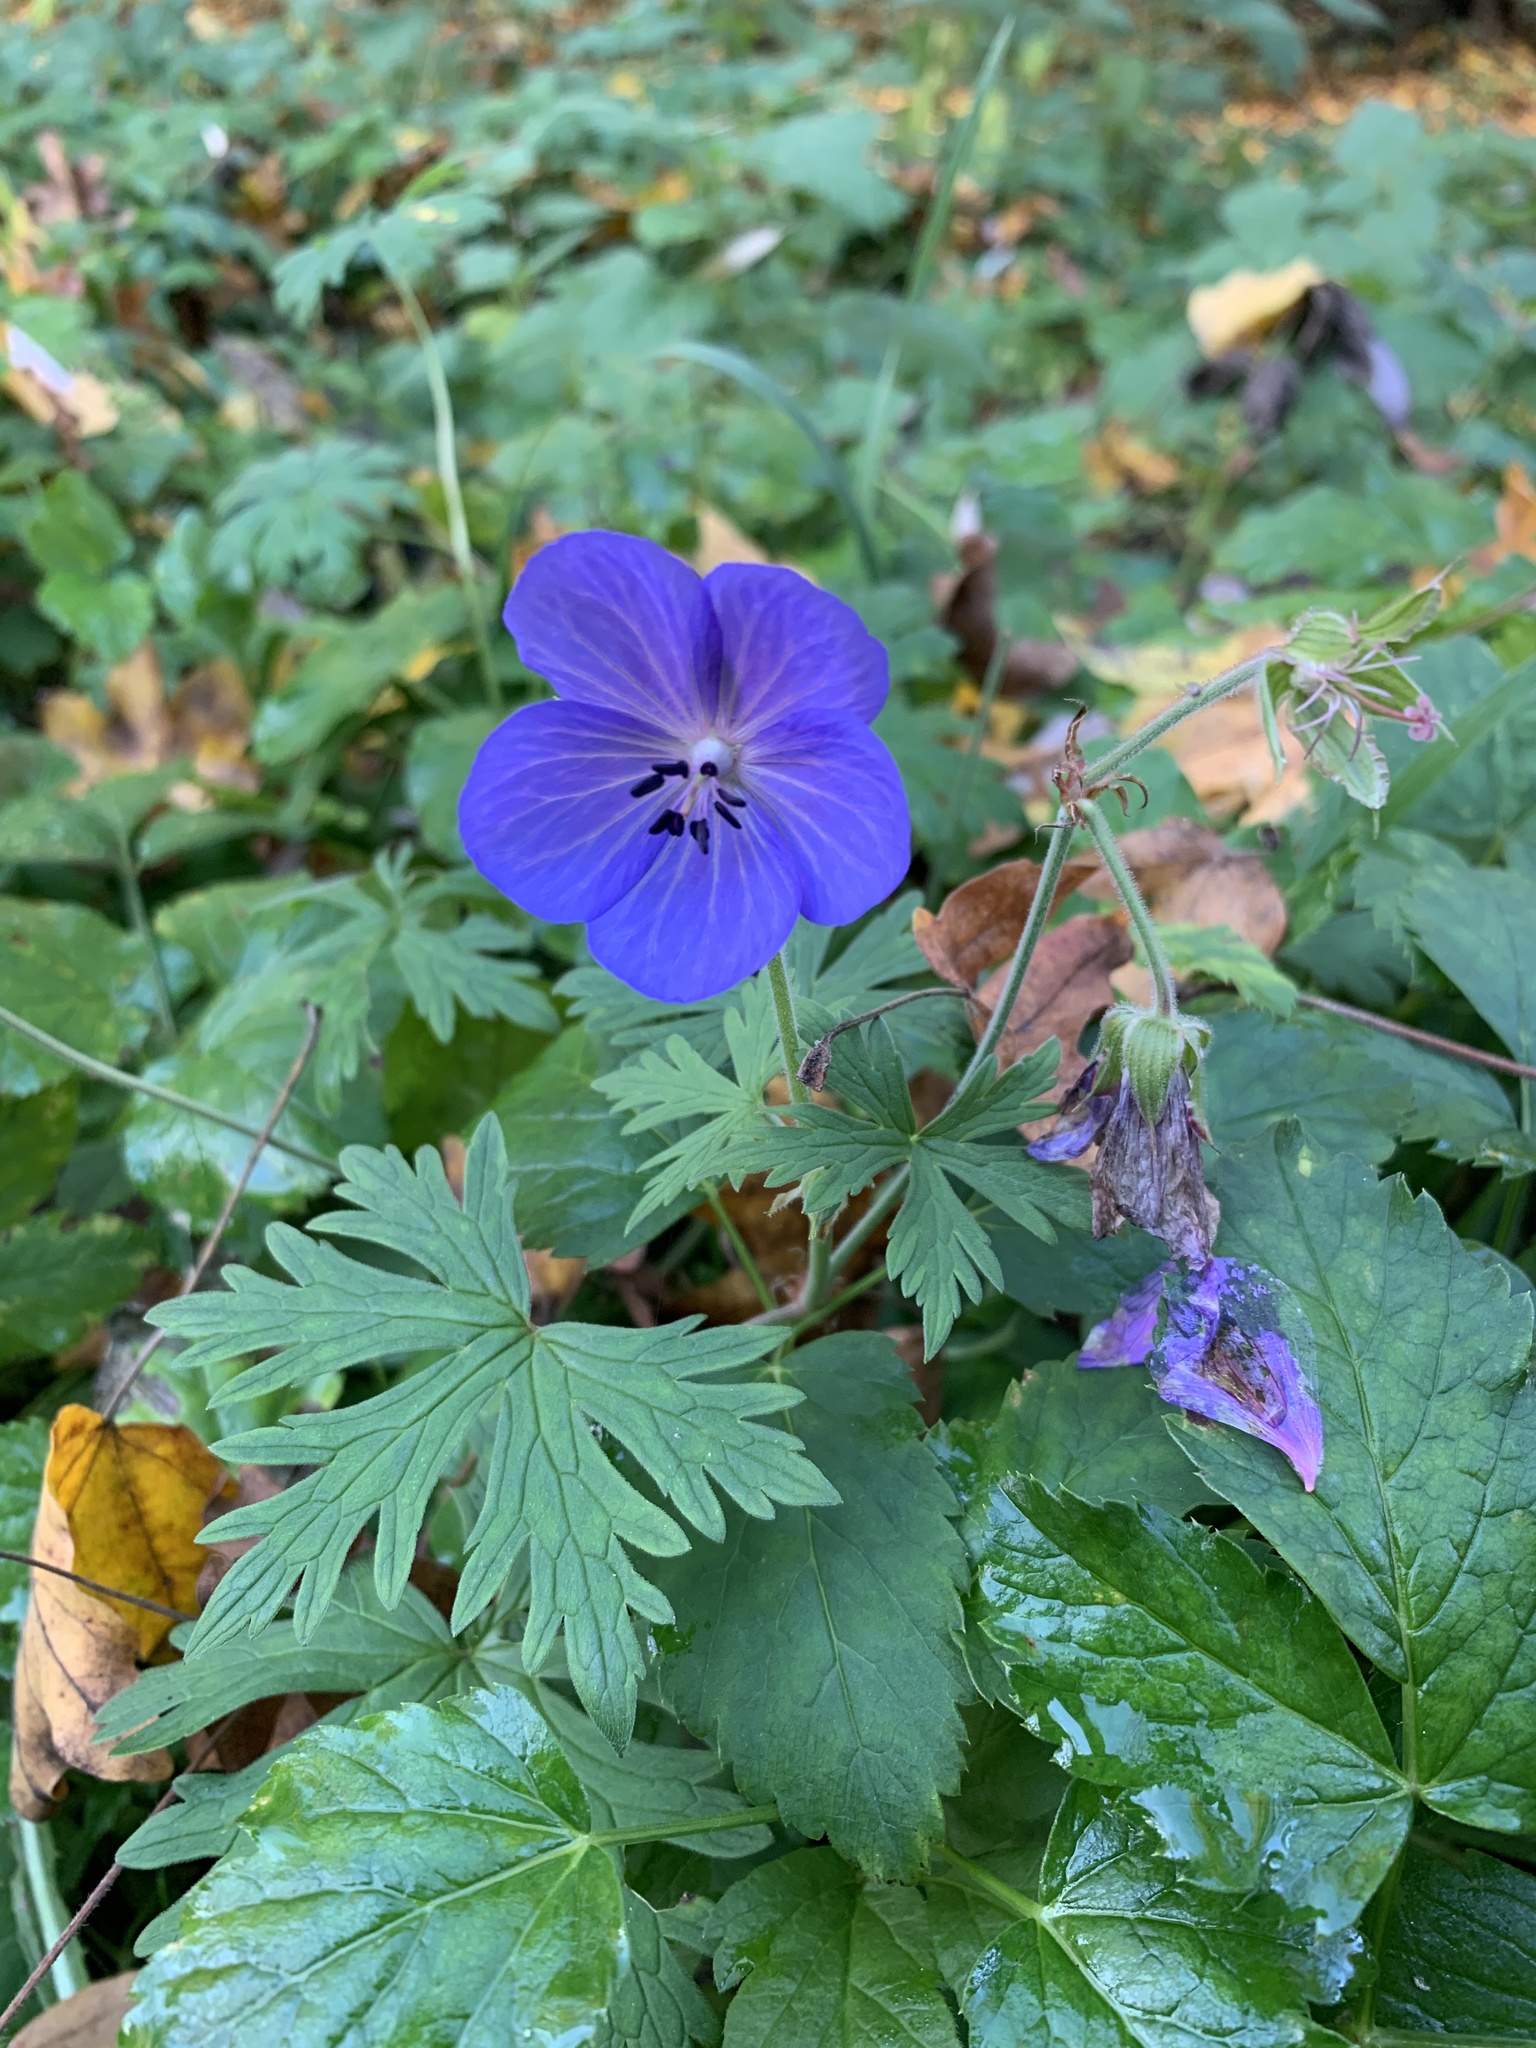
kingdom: Plantae
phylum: Tracheophyta
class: Magnoliopsida
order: Geraniales
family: Geraniaceae
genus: Geranium
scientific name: Geranium pratense
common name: Meadow crane's-bill
